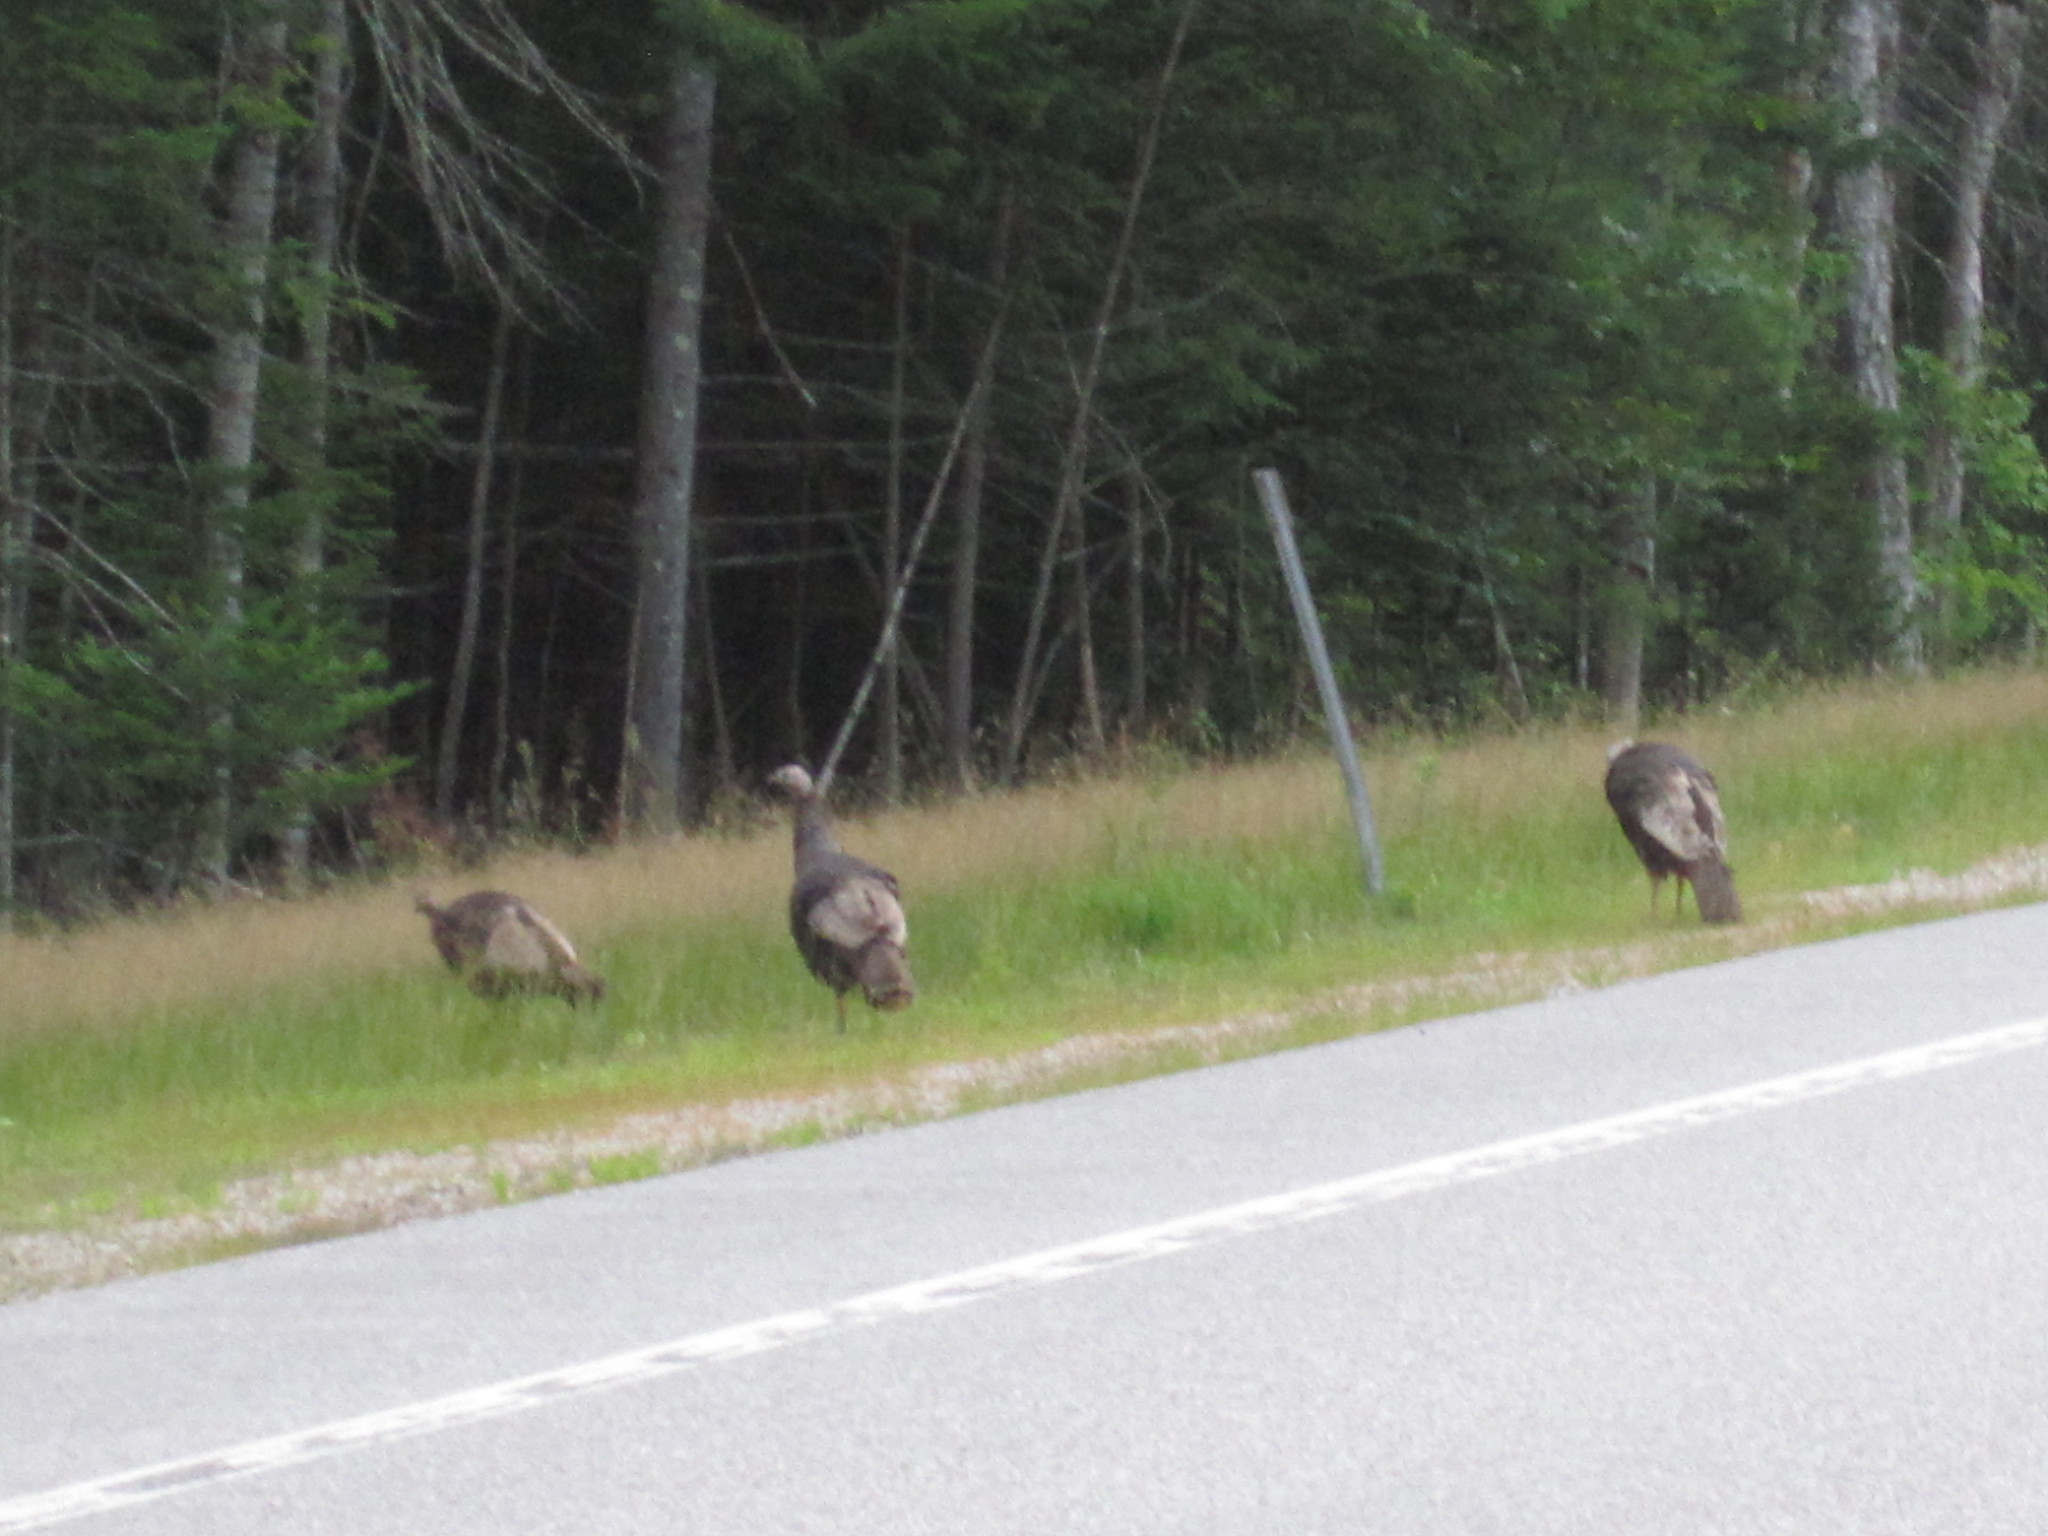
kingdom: Animalia
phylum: Chordata
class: Aves
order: Galliformes
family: Phasianidae
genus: Meleagris
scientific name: Meleagris gallopavo
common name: Wild turkey
